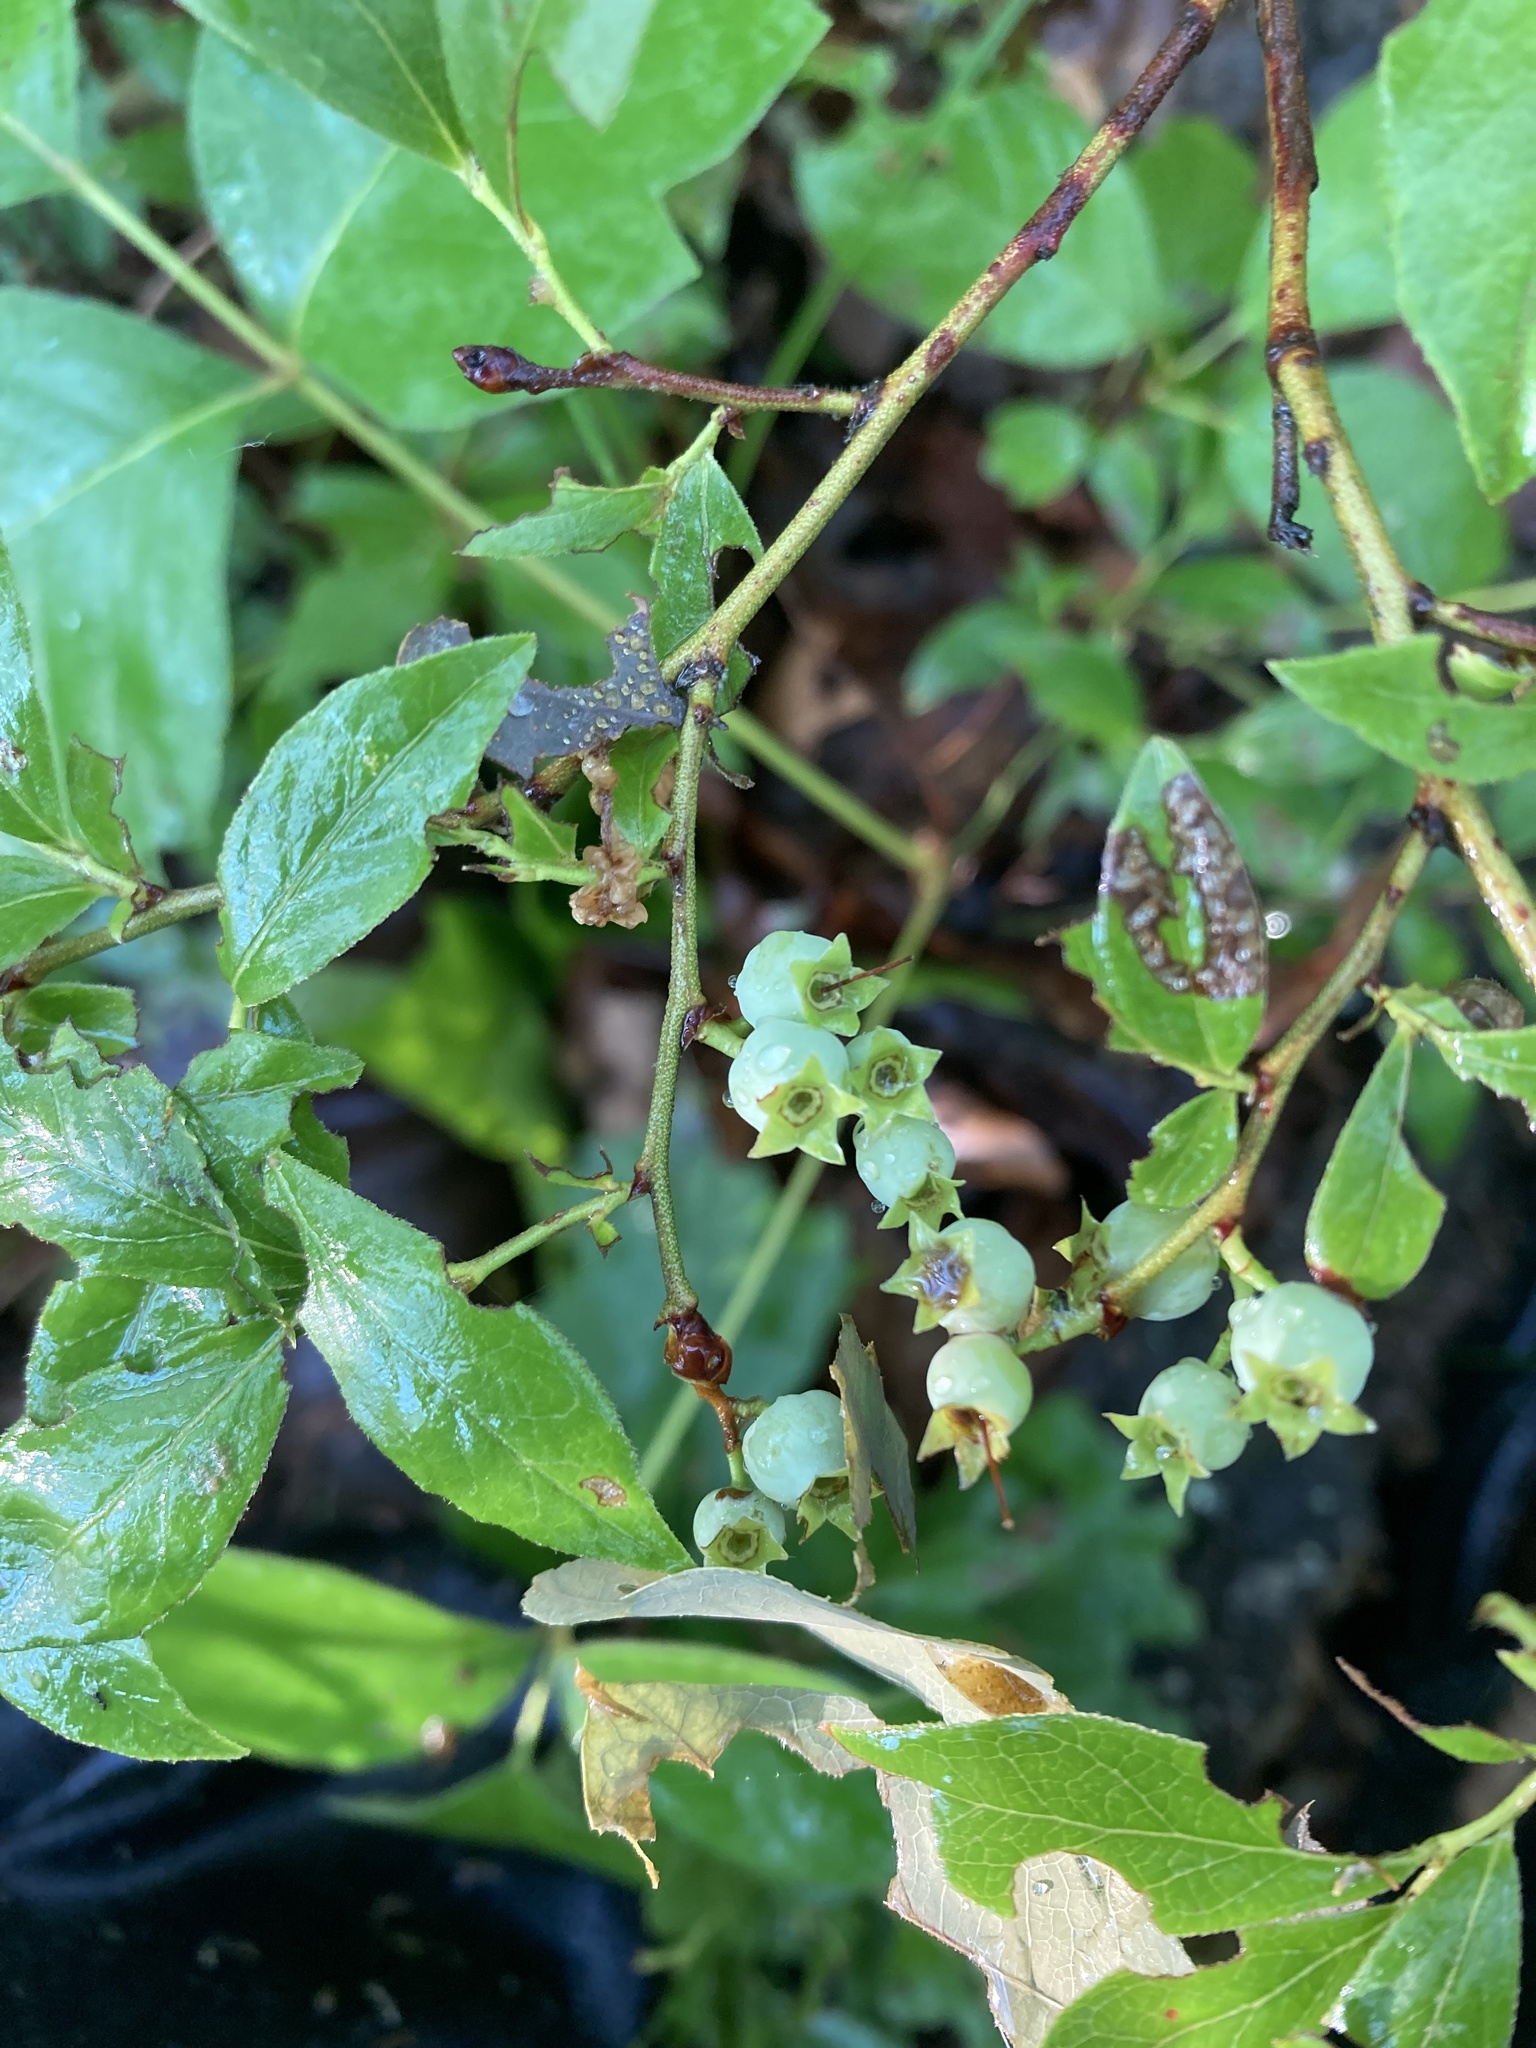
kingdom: Plantae
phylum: Tracheophyta
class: Magnoliopsida
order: Ericales
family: Ericaceae
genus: Vaccinium
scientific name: Vaccinium corymbosum
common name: Blueberry
